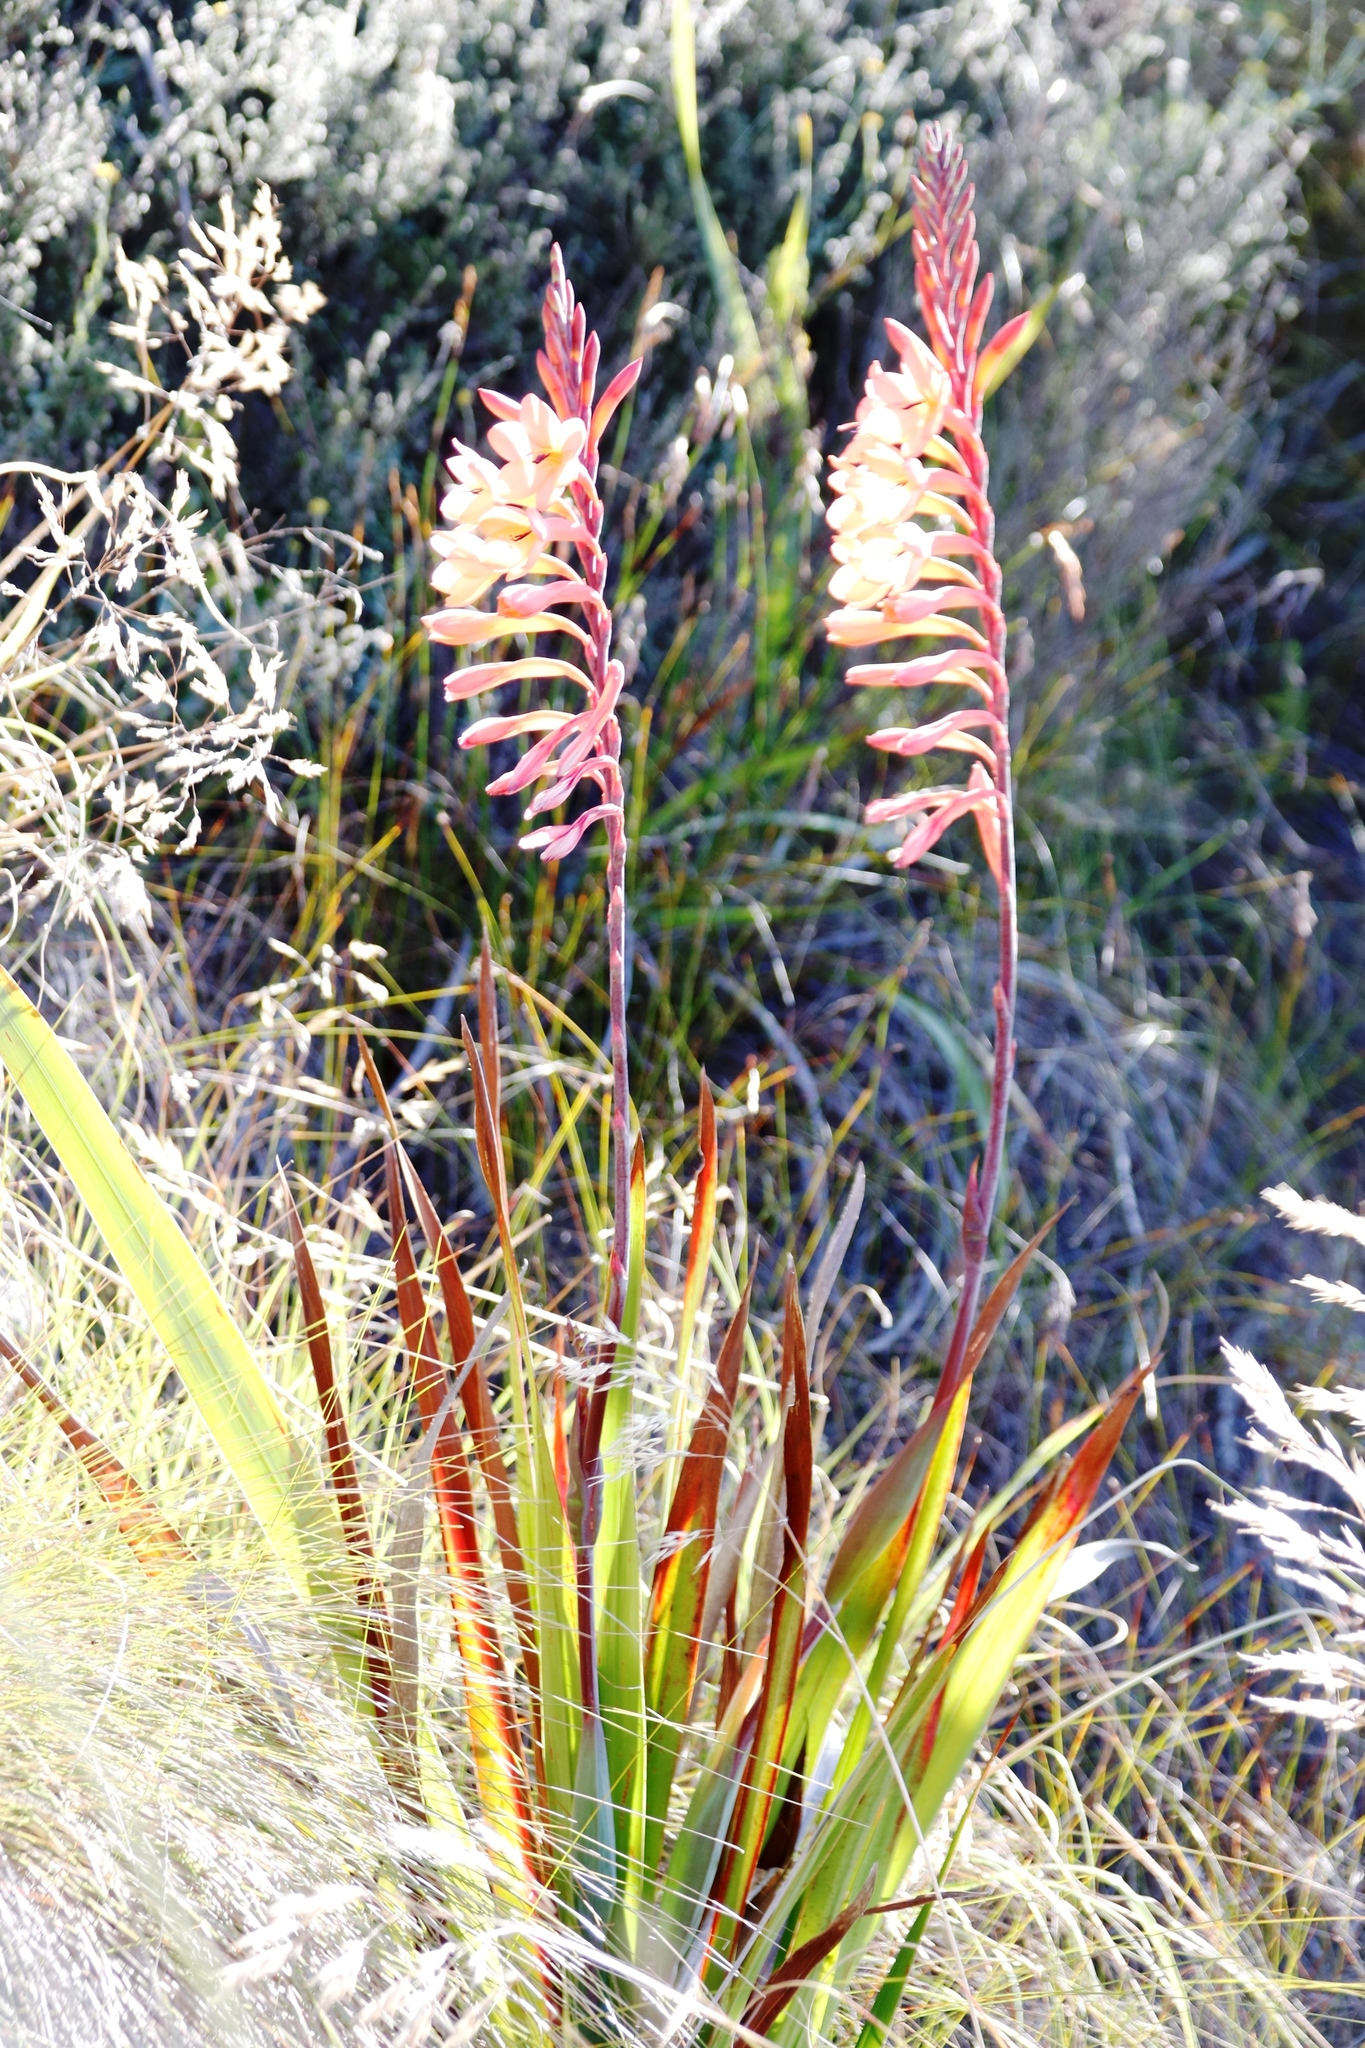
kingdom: Plantae
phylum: Tracheophyta
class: Liliopsida
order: Asparagales
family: Iridaceae
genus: Watsonia
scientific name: Watsonia tabularis
